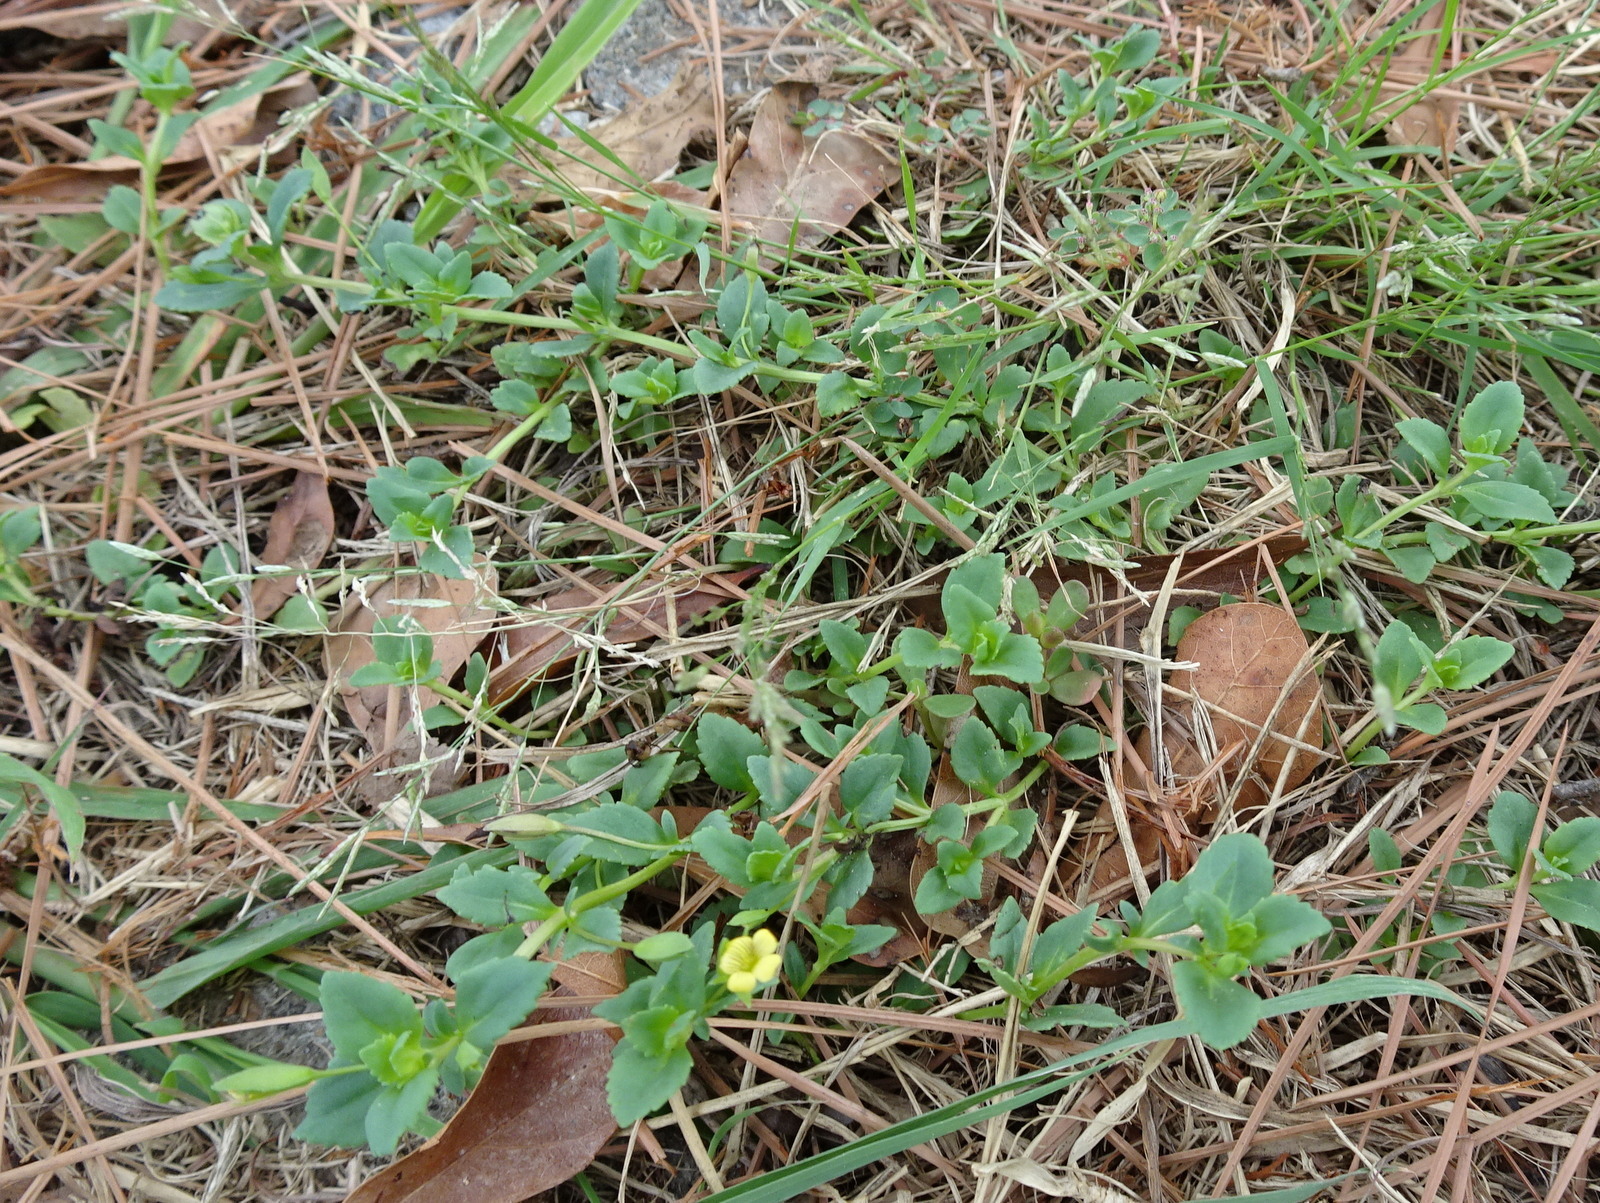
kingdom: Plantae
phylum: Tracheophyta
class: Magnoliopsida
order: Lamiales
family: Plantaginaceae
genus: Mecardonia
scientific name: Mecardonia procumbens
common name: Baby jump-up
